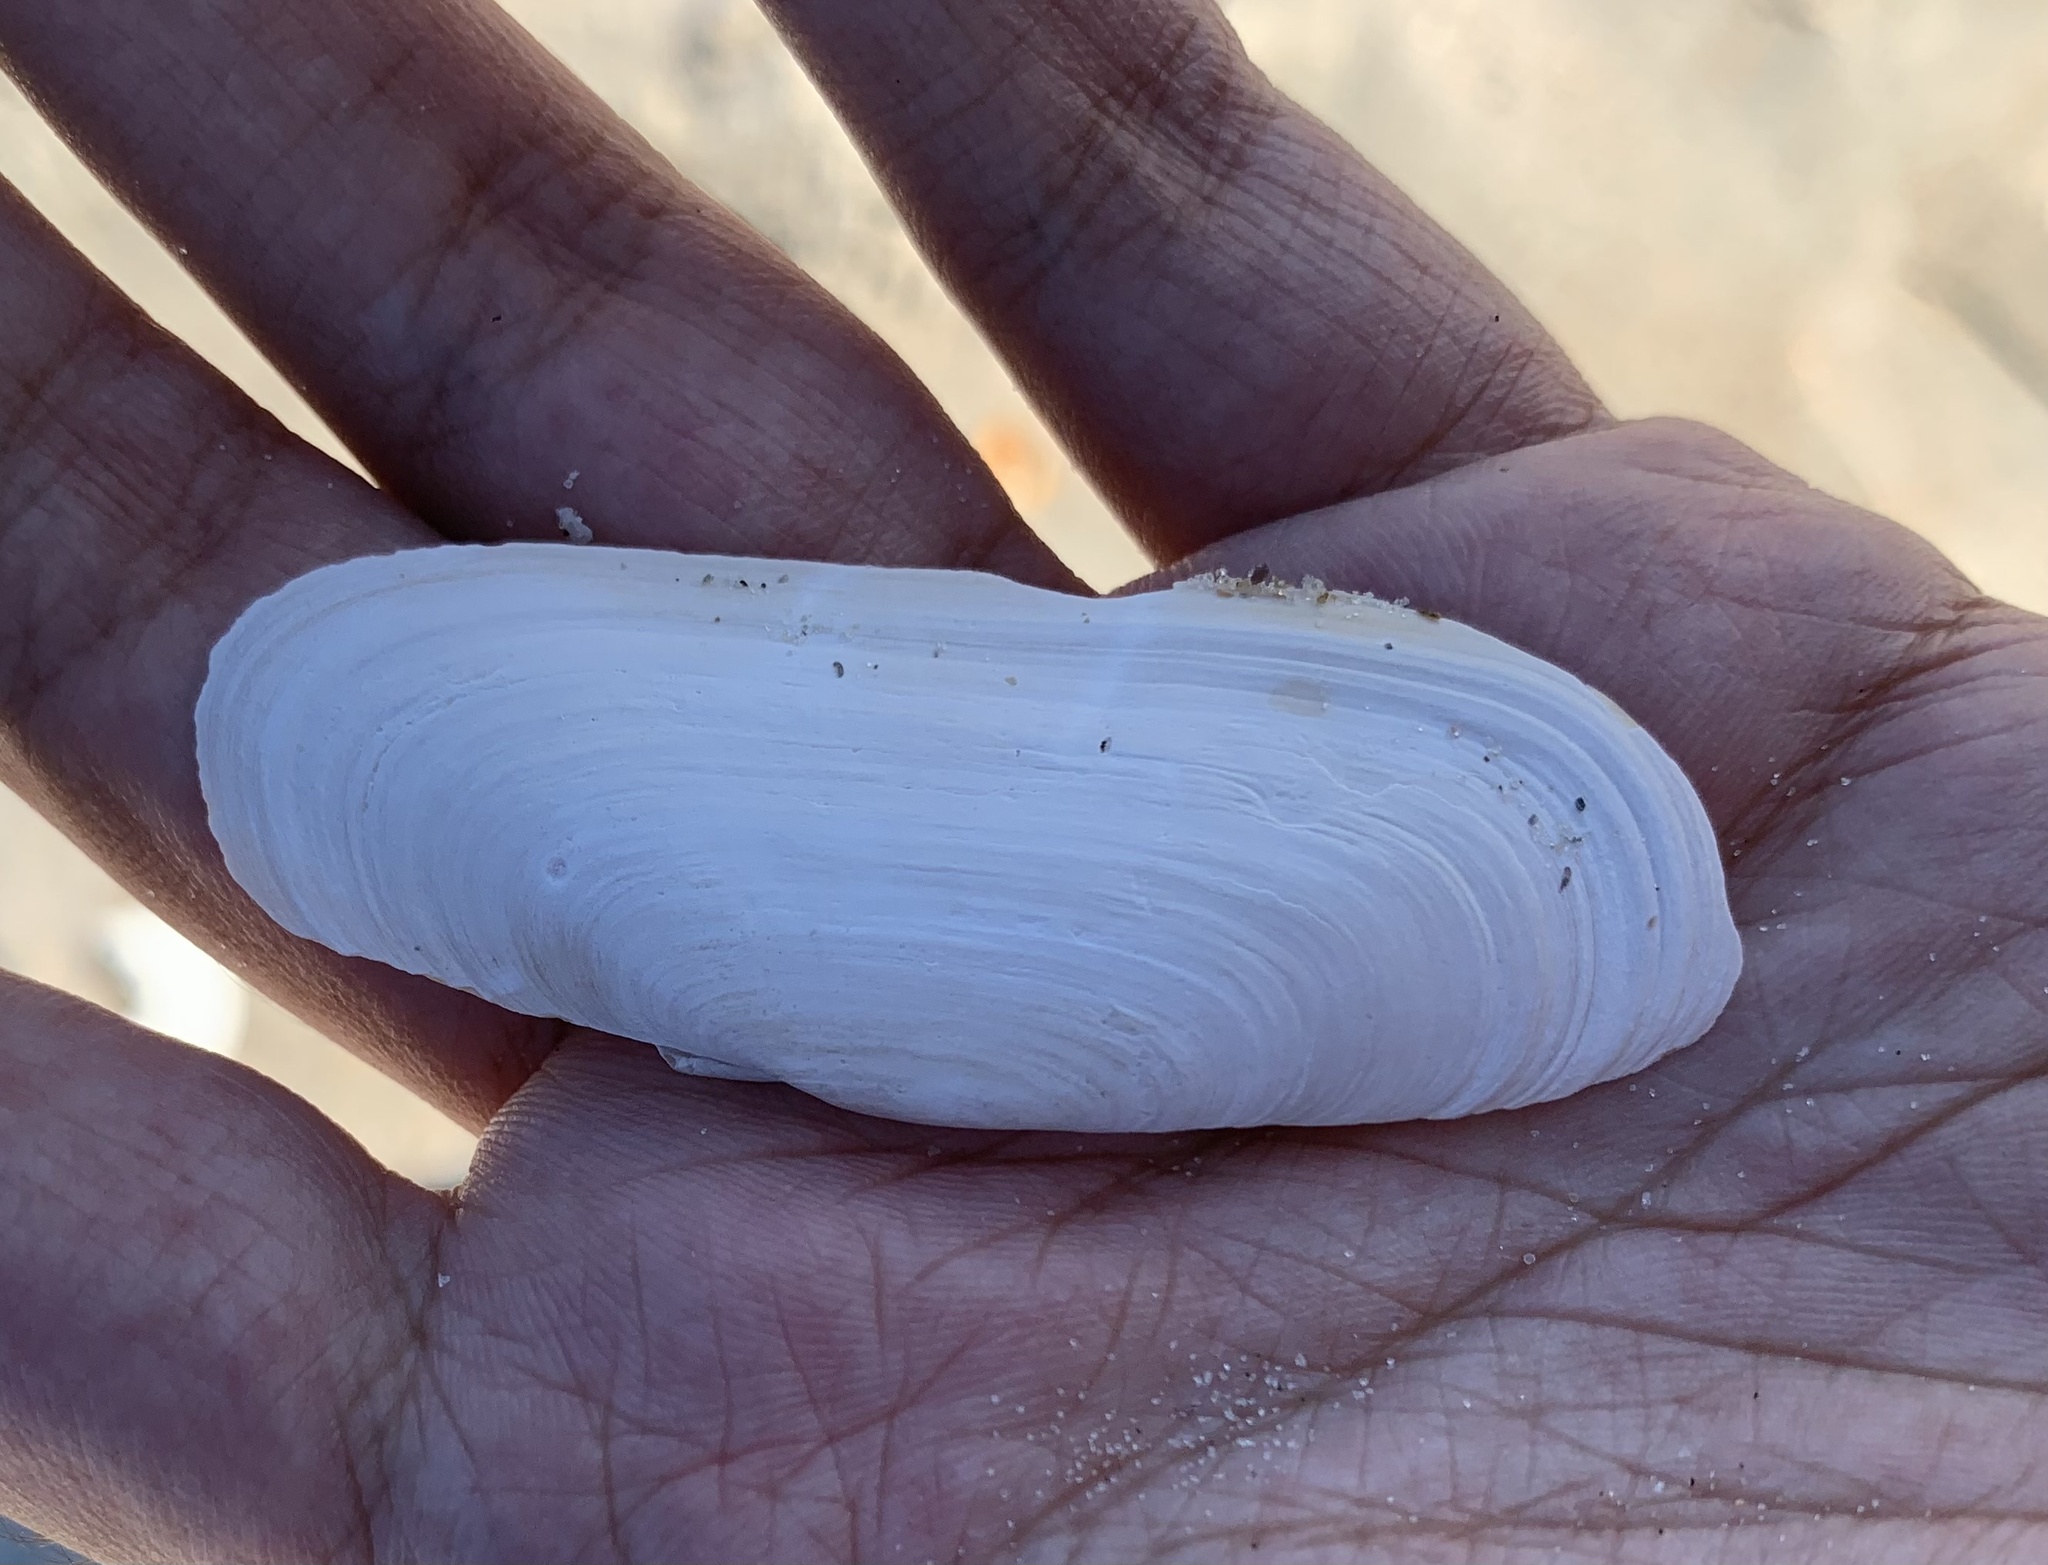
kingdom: Animalia
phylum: Mollusca
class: Bivalvia
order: Cardiida
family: Solecurtidae
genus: Tagelus
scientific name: Tagelus plebeius
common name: Stout tagelus
